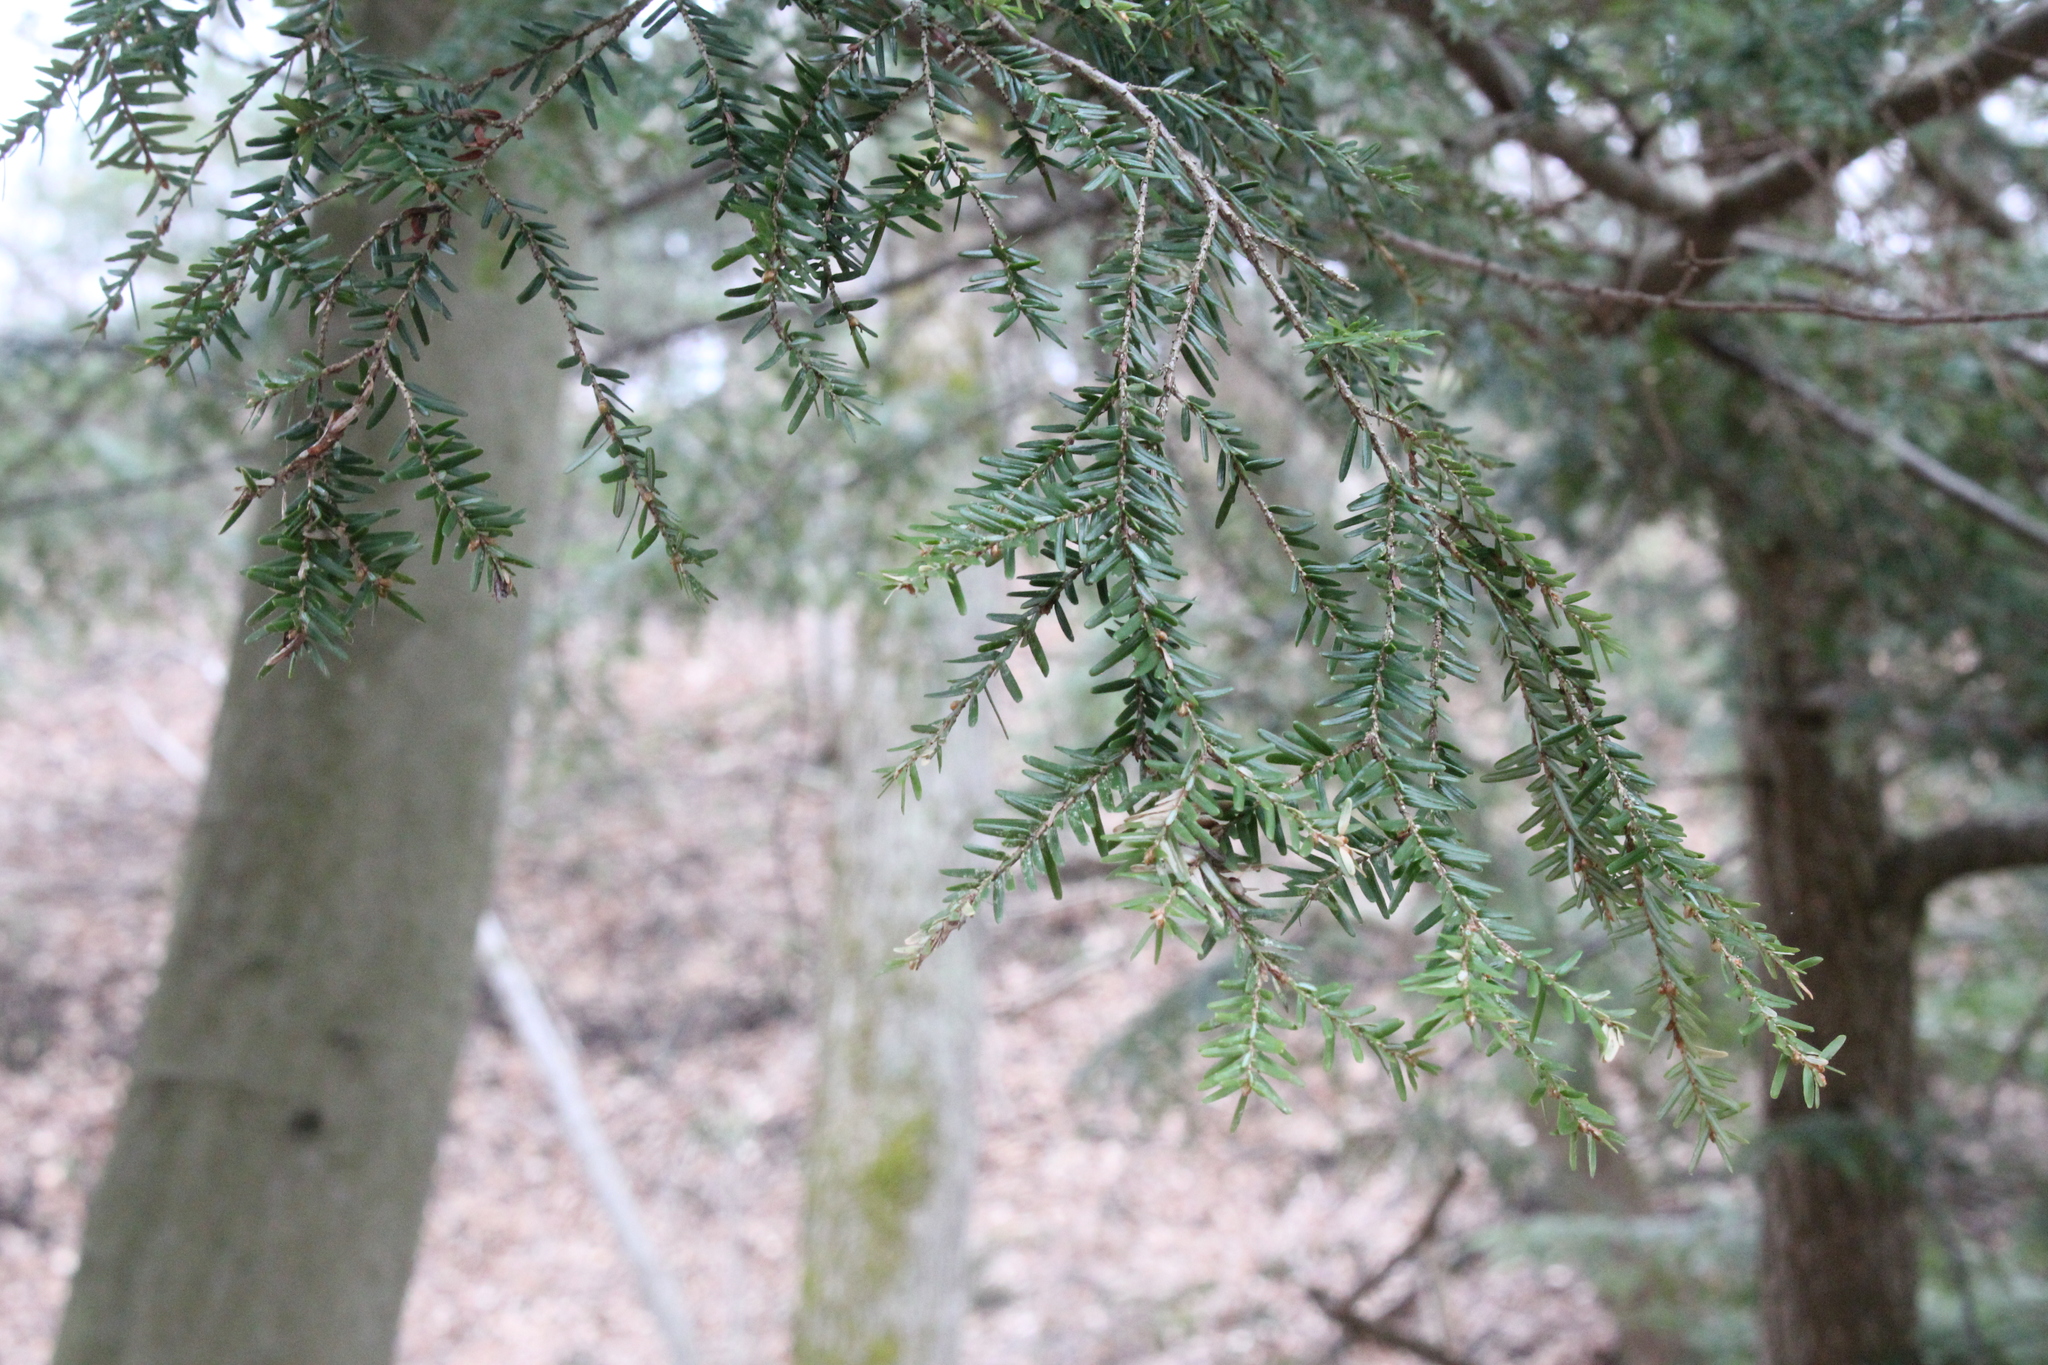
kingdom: Plantae
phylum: Tracheophyta
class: Pinopsida
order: Pinales
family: Pinaceae
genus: Tsuga
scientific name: Tsuga canadensis
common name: Eastern hemlock
